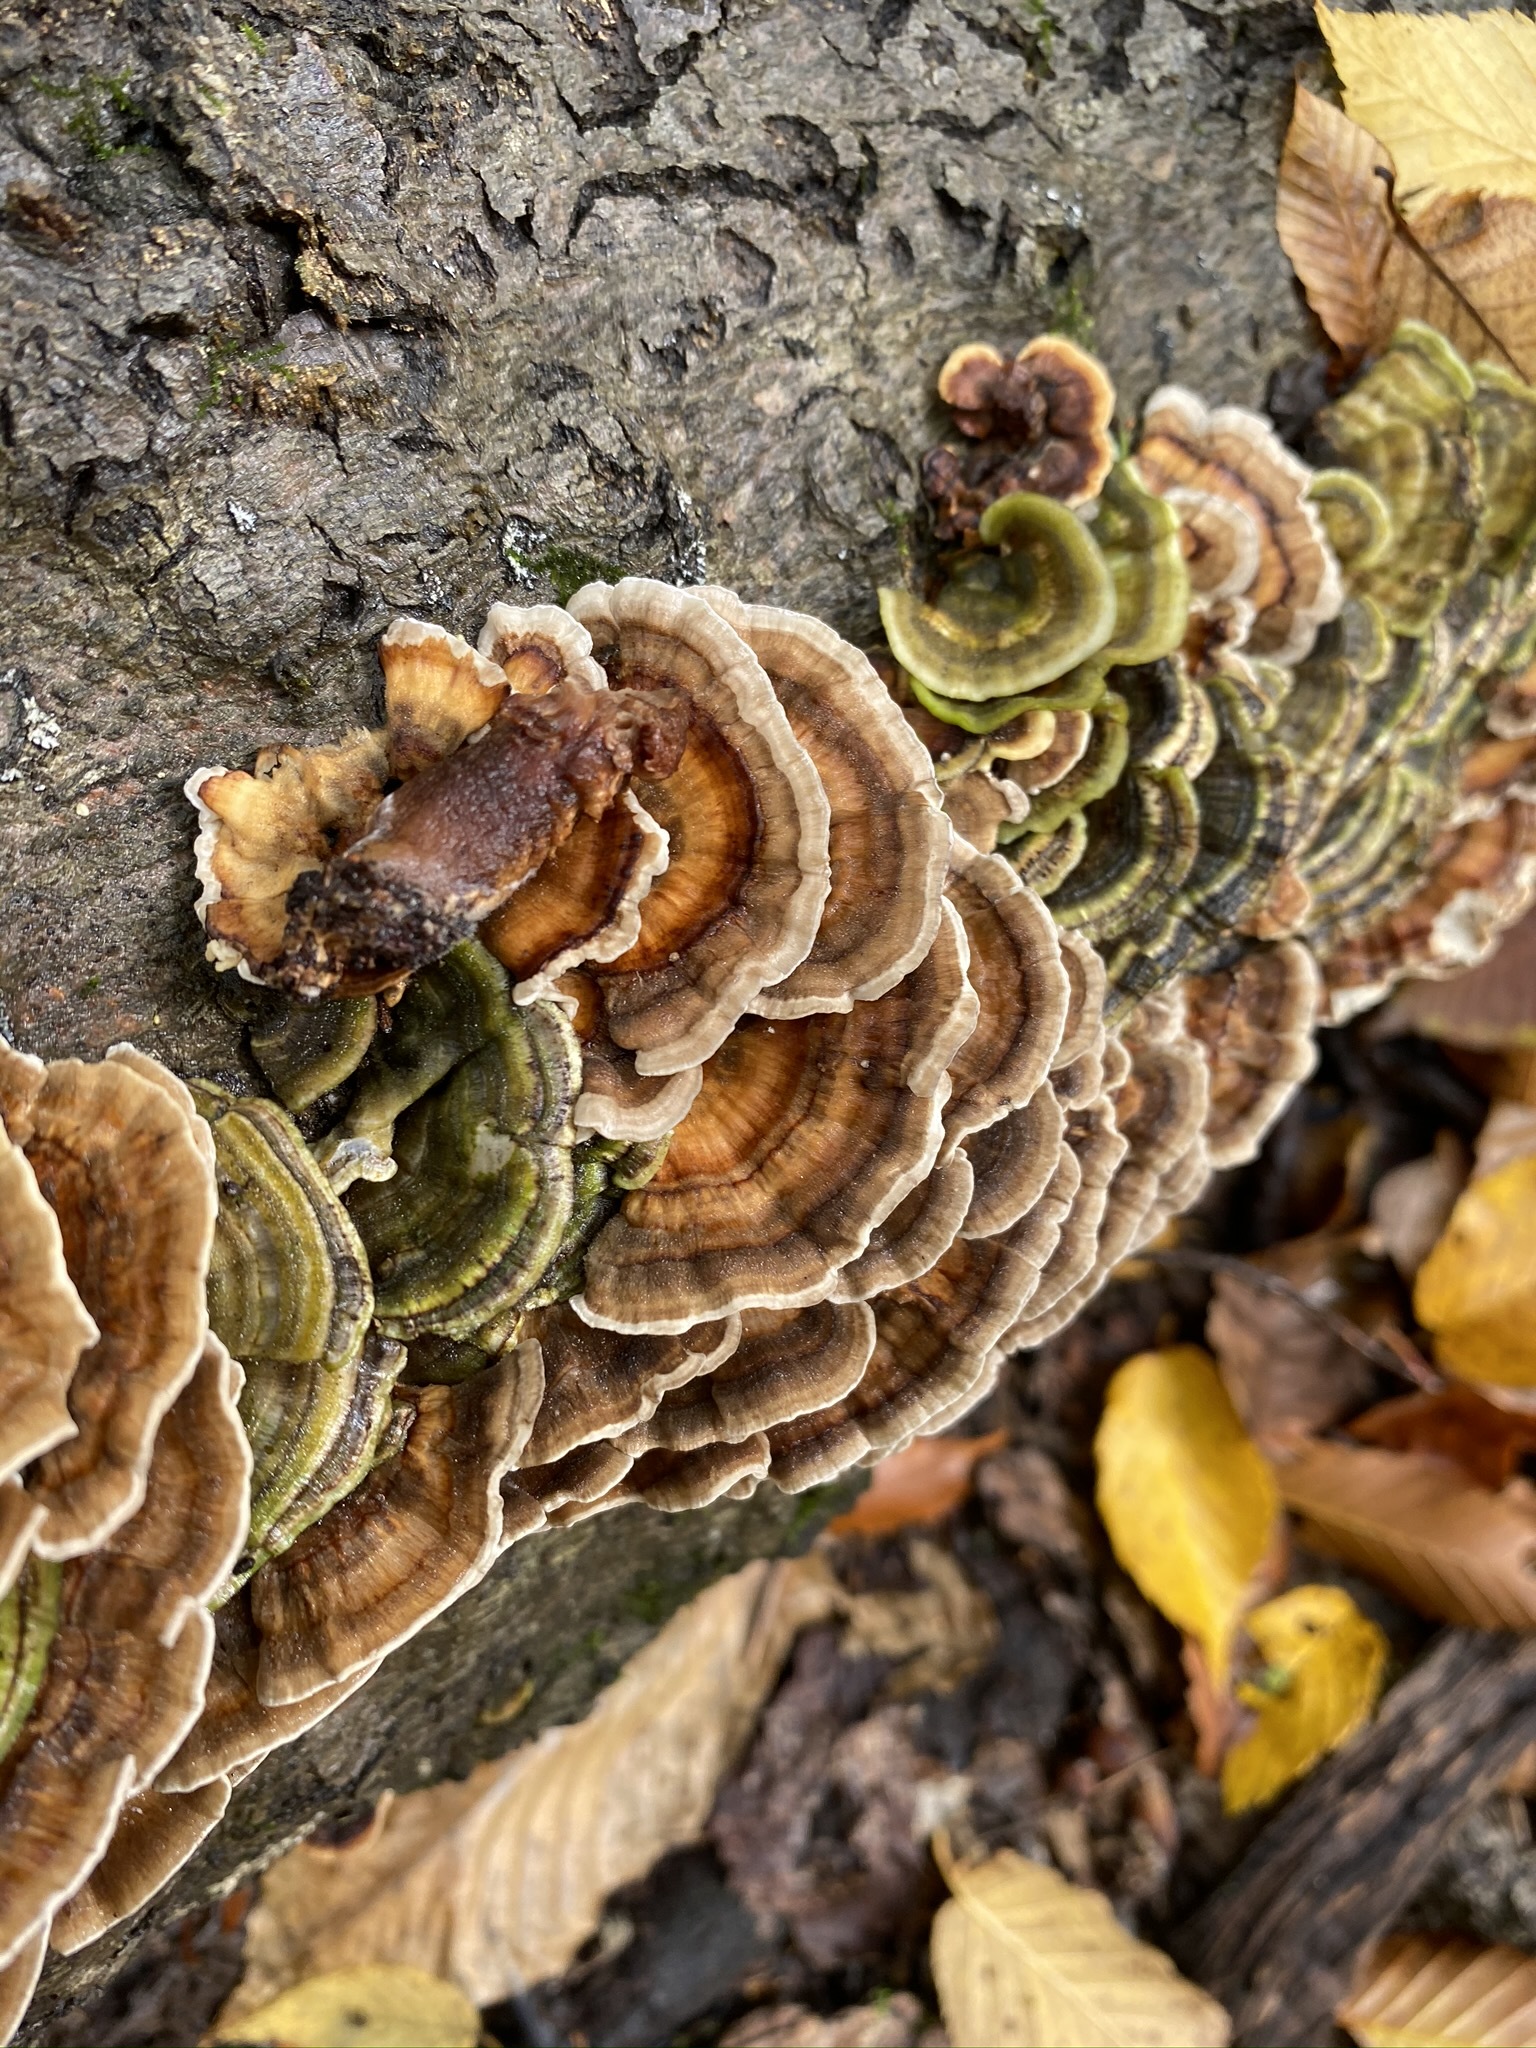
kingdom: Fungi
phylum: Basidiomycota
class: Agaricomycetes
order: Polyporales
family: Polyporaceae
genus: Trametes
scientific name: Trametes versicolor
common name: Turkeytail
